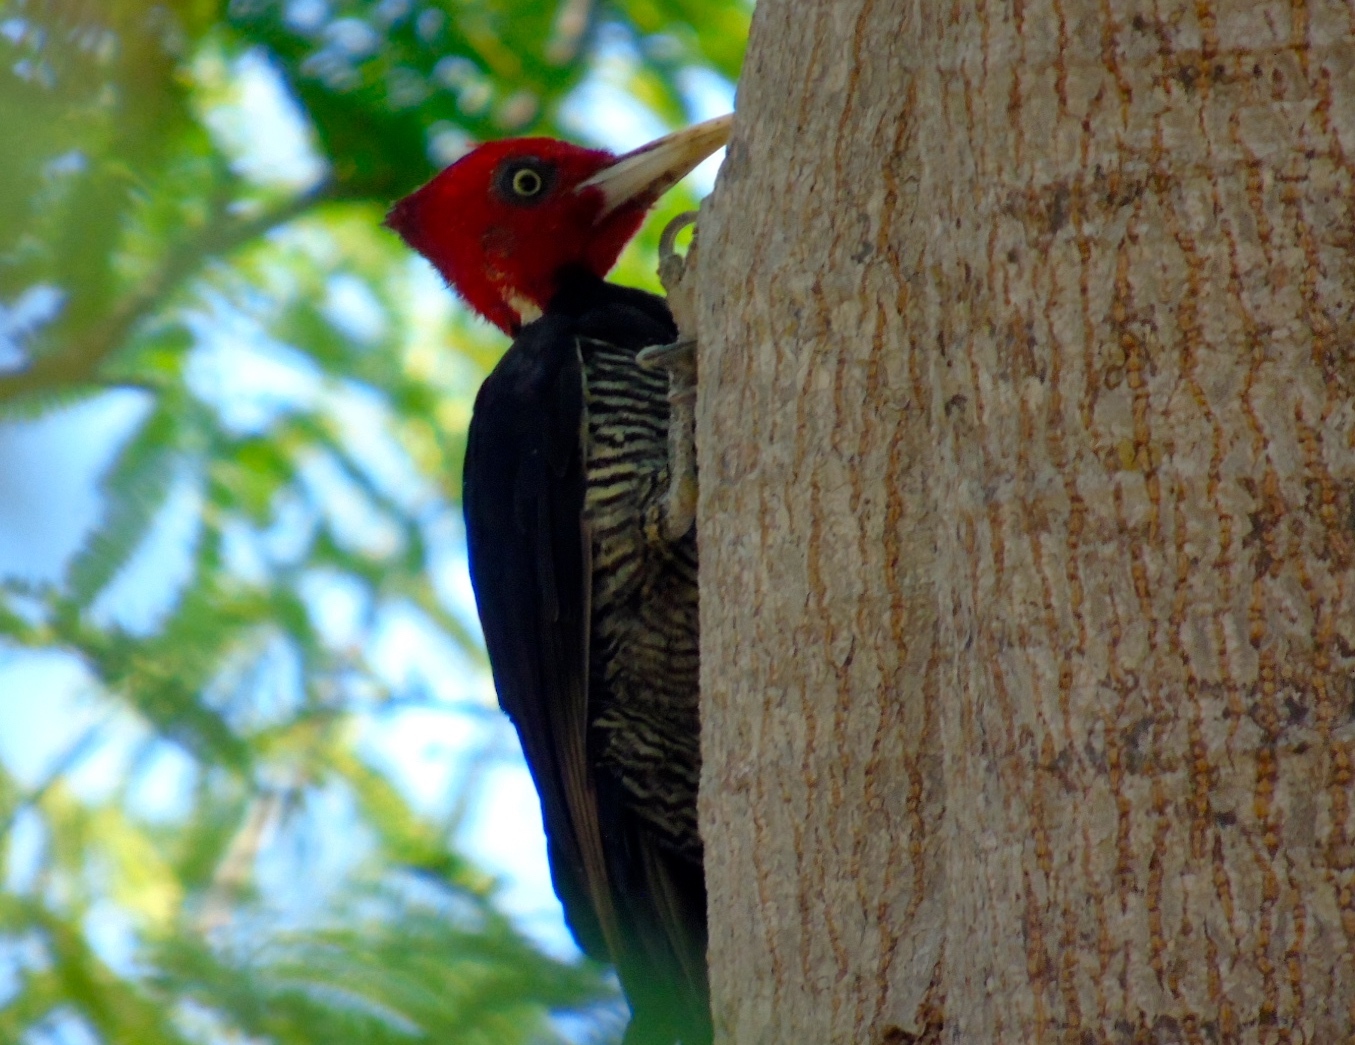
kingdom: Animalia
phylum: Chordata
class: Aves
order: Piciformes
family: Picidae
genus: Campephilus
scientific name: Campephilus guatemalensis
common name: Pale-billed woodpecker
